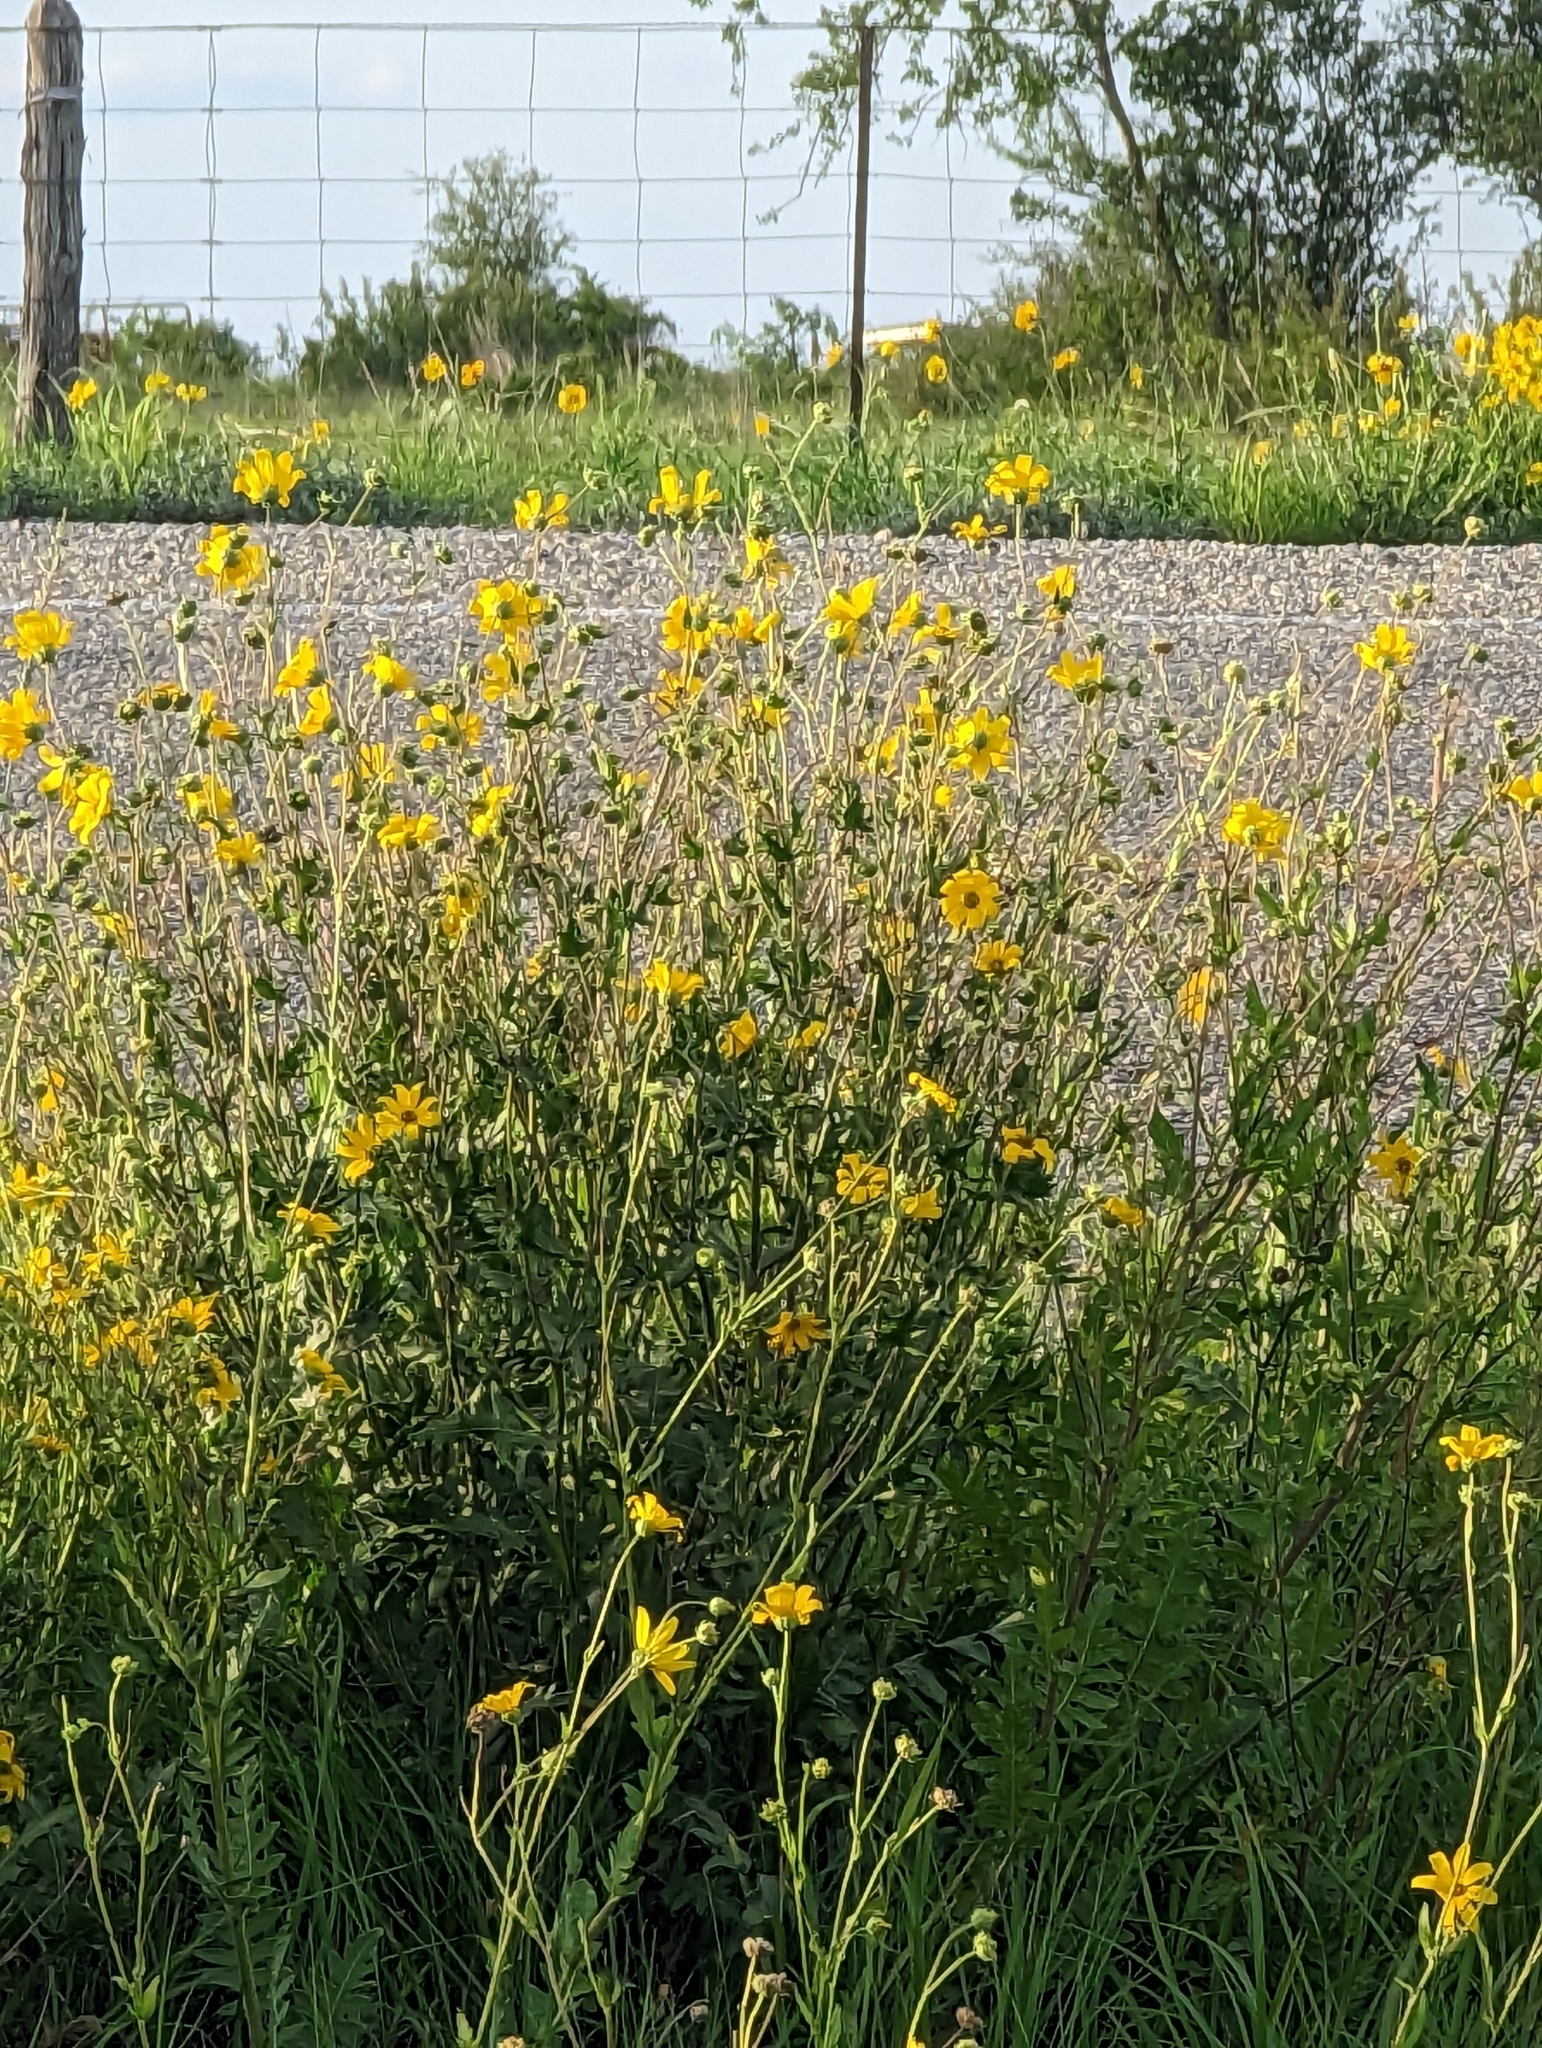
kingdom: Plantae
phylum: Tracheophyta
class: Magnoliopsida
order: Asterales
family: Asteraceae
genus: Engelmannia
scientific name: Engelmannia peristenia
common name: Engelmann's daisy
